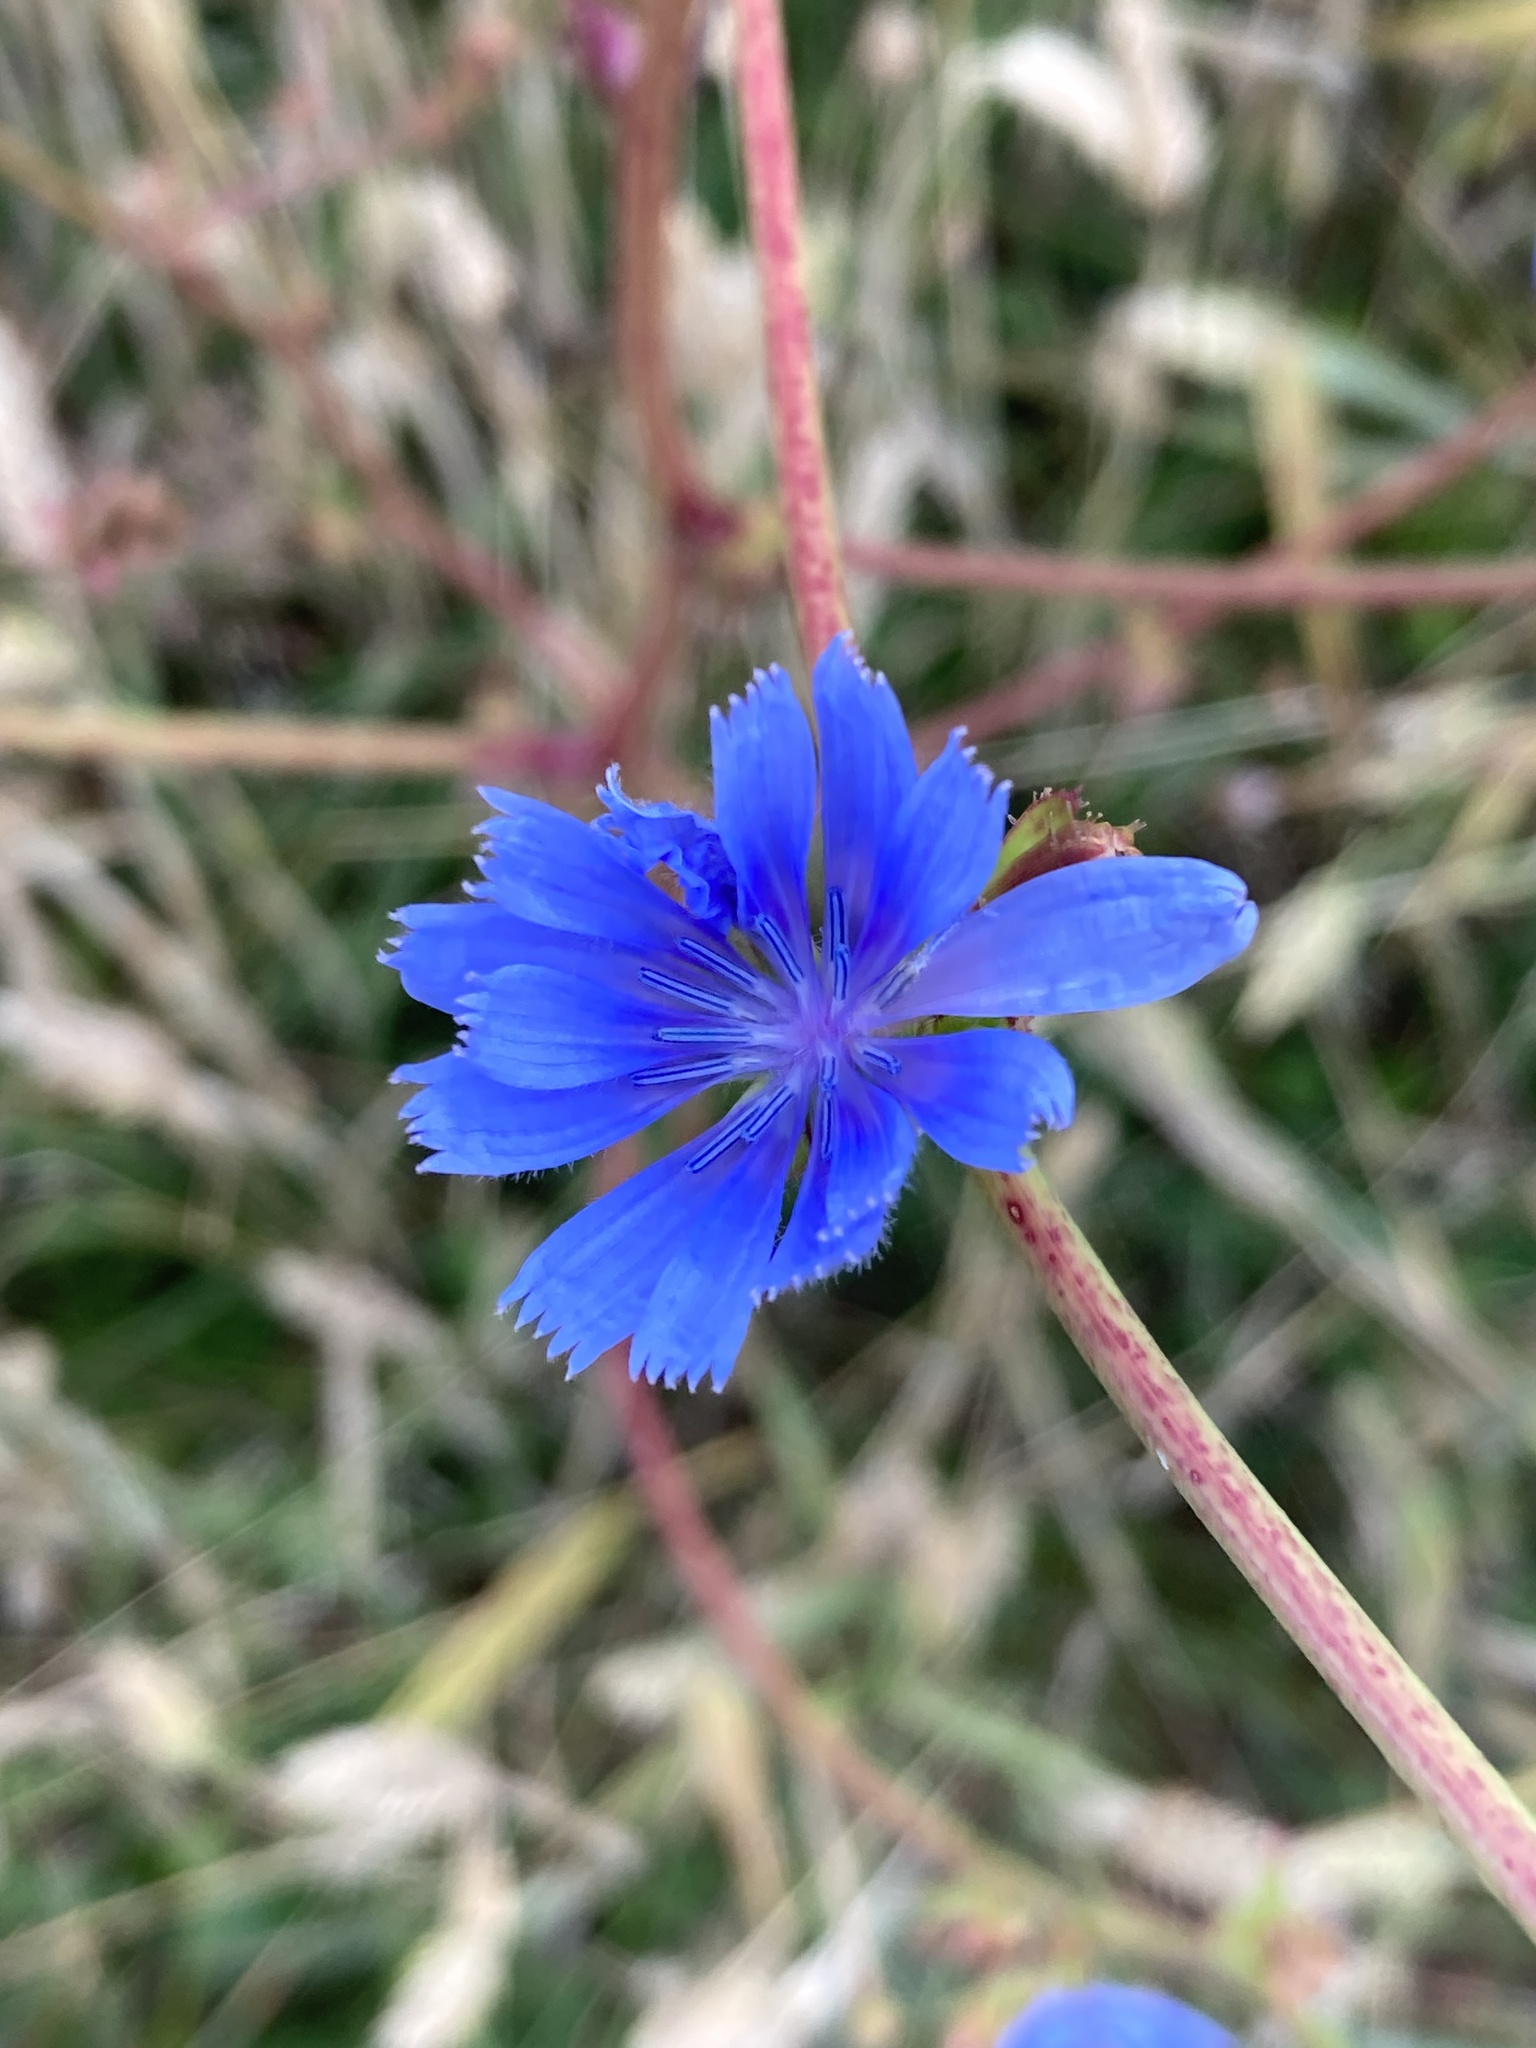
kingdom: Plantae
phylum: Tracheophyta
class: Magnoliopsida
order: Asterales
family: Asteraceae
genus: Cichorium
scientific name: Cichorium intybus
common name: Chicory
